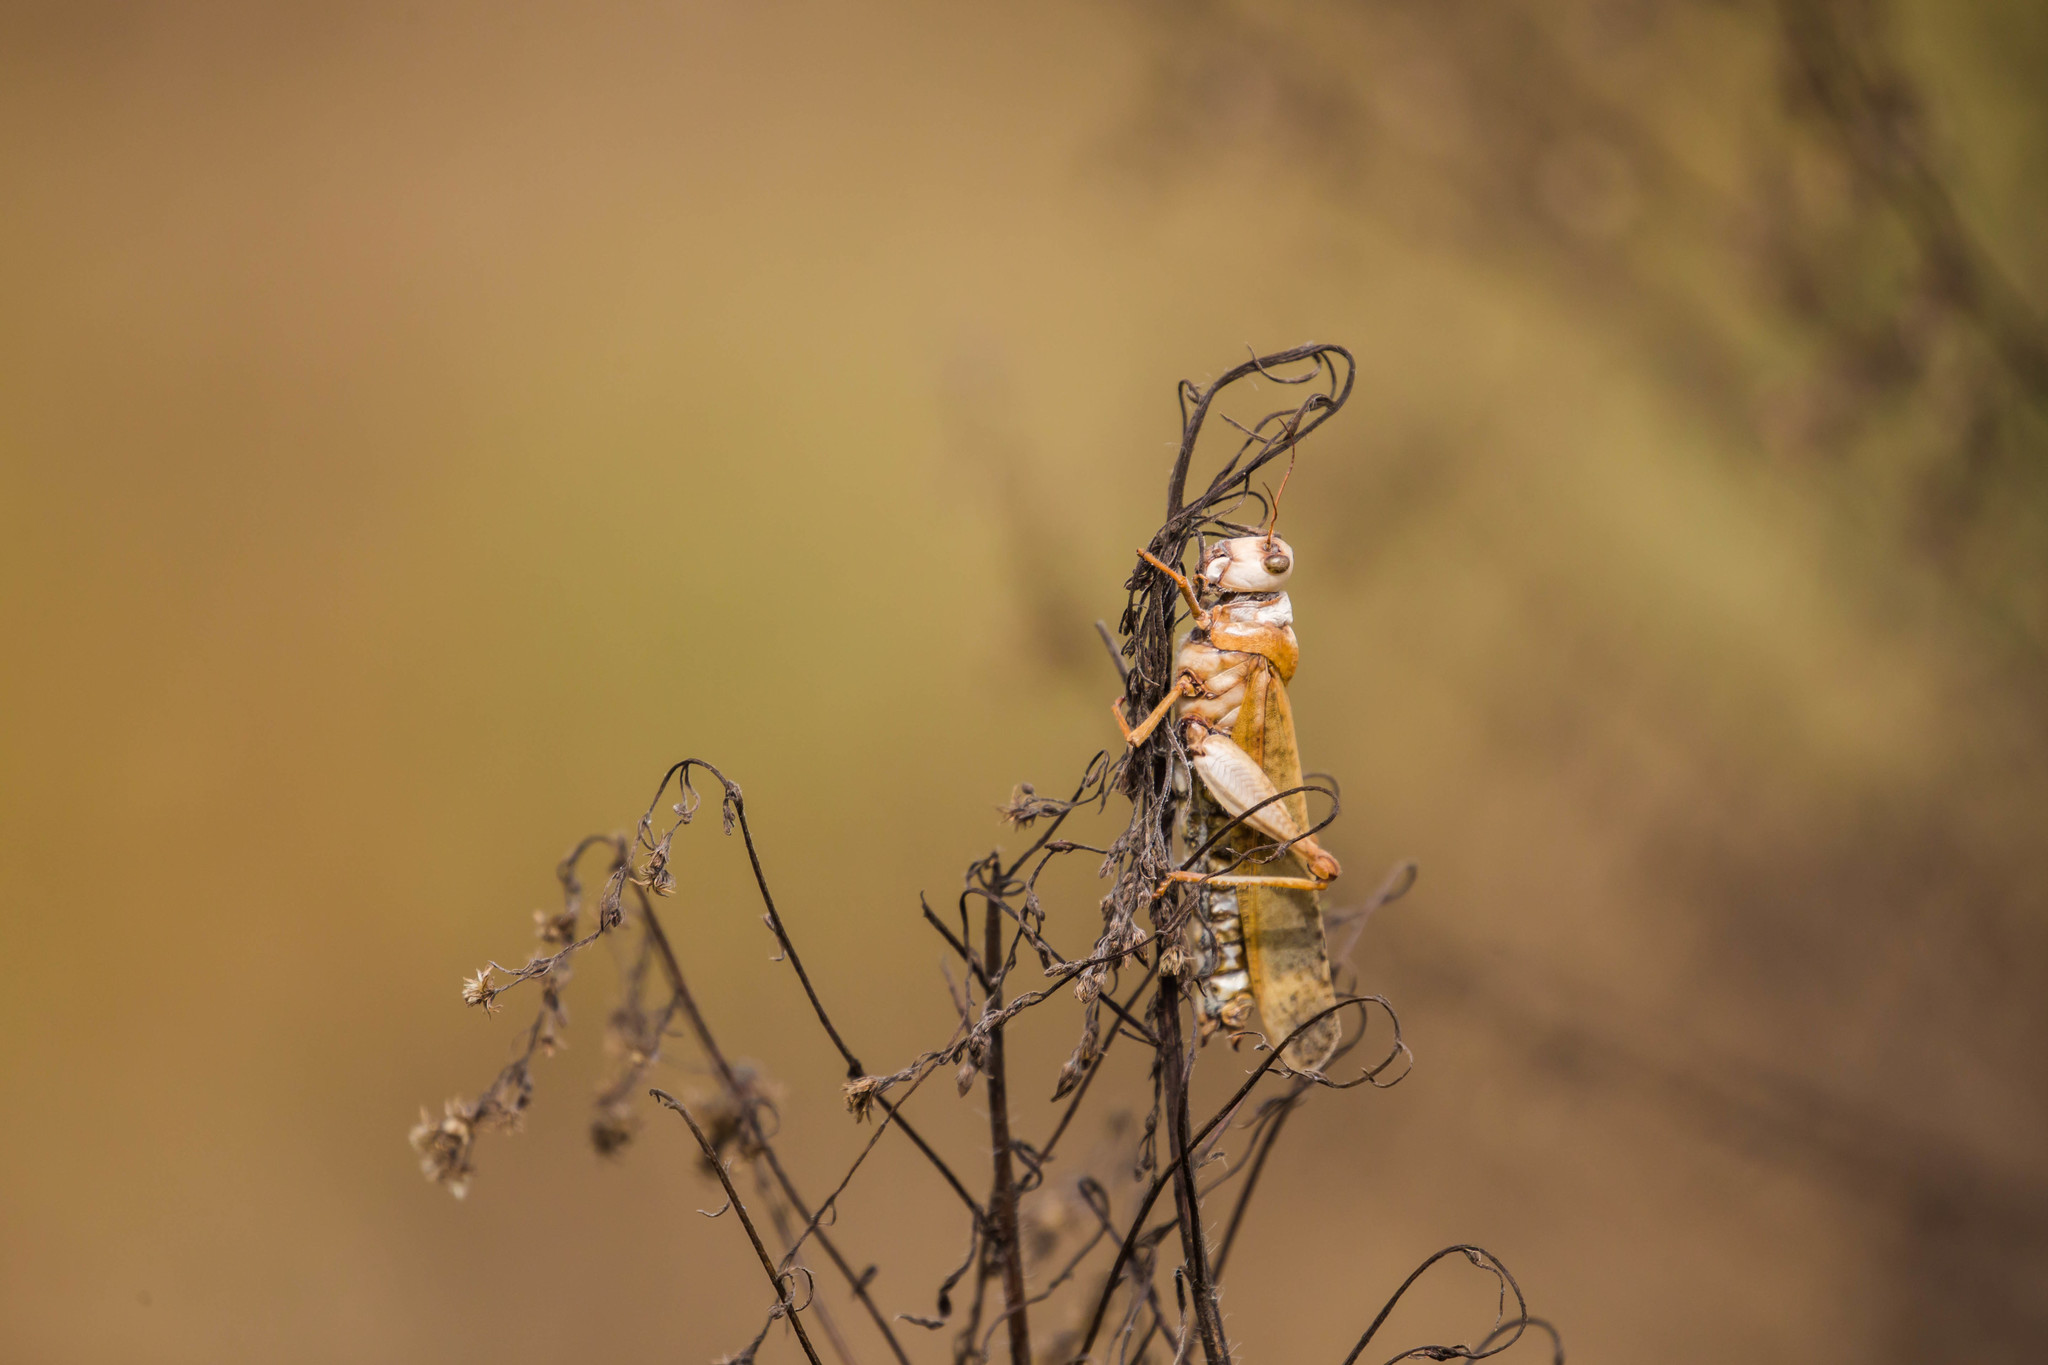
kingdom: Animalia
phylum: Arthropoda
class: Insecta
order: Orthoptera
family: Acrididae
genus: Dissosteira
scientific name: Dissosteira carolina
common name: Carolina grasshopper
